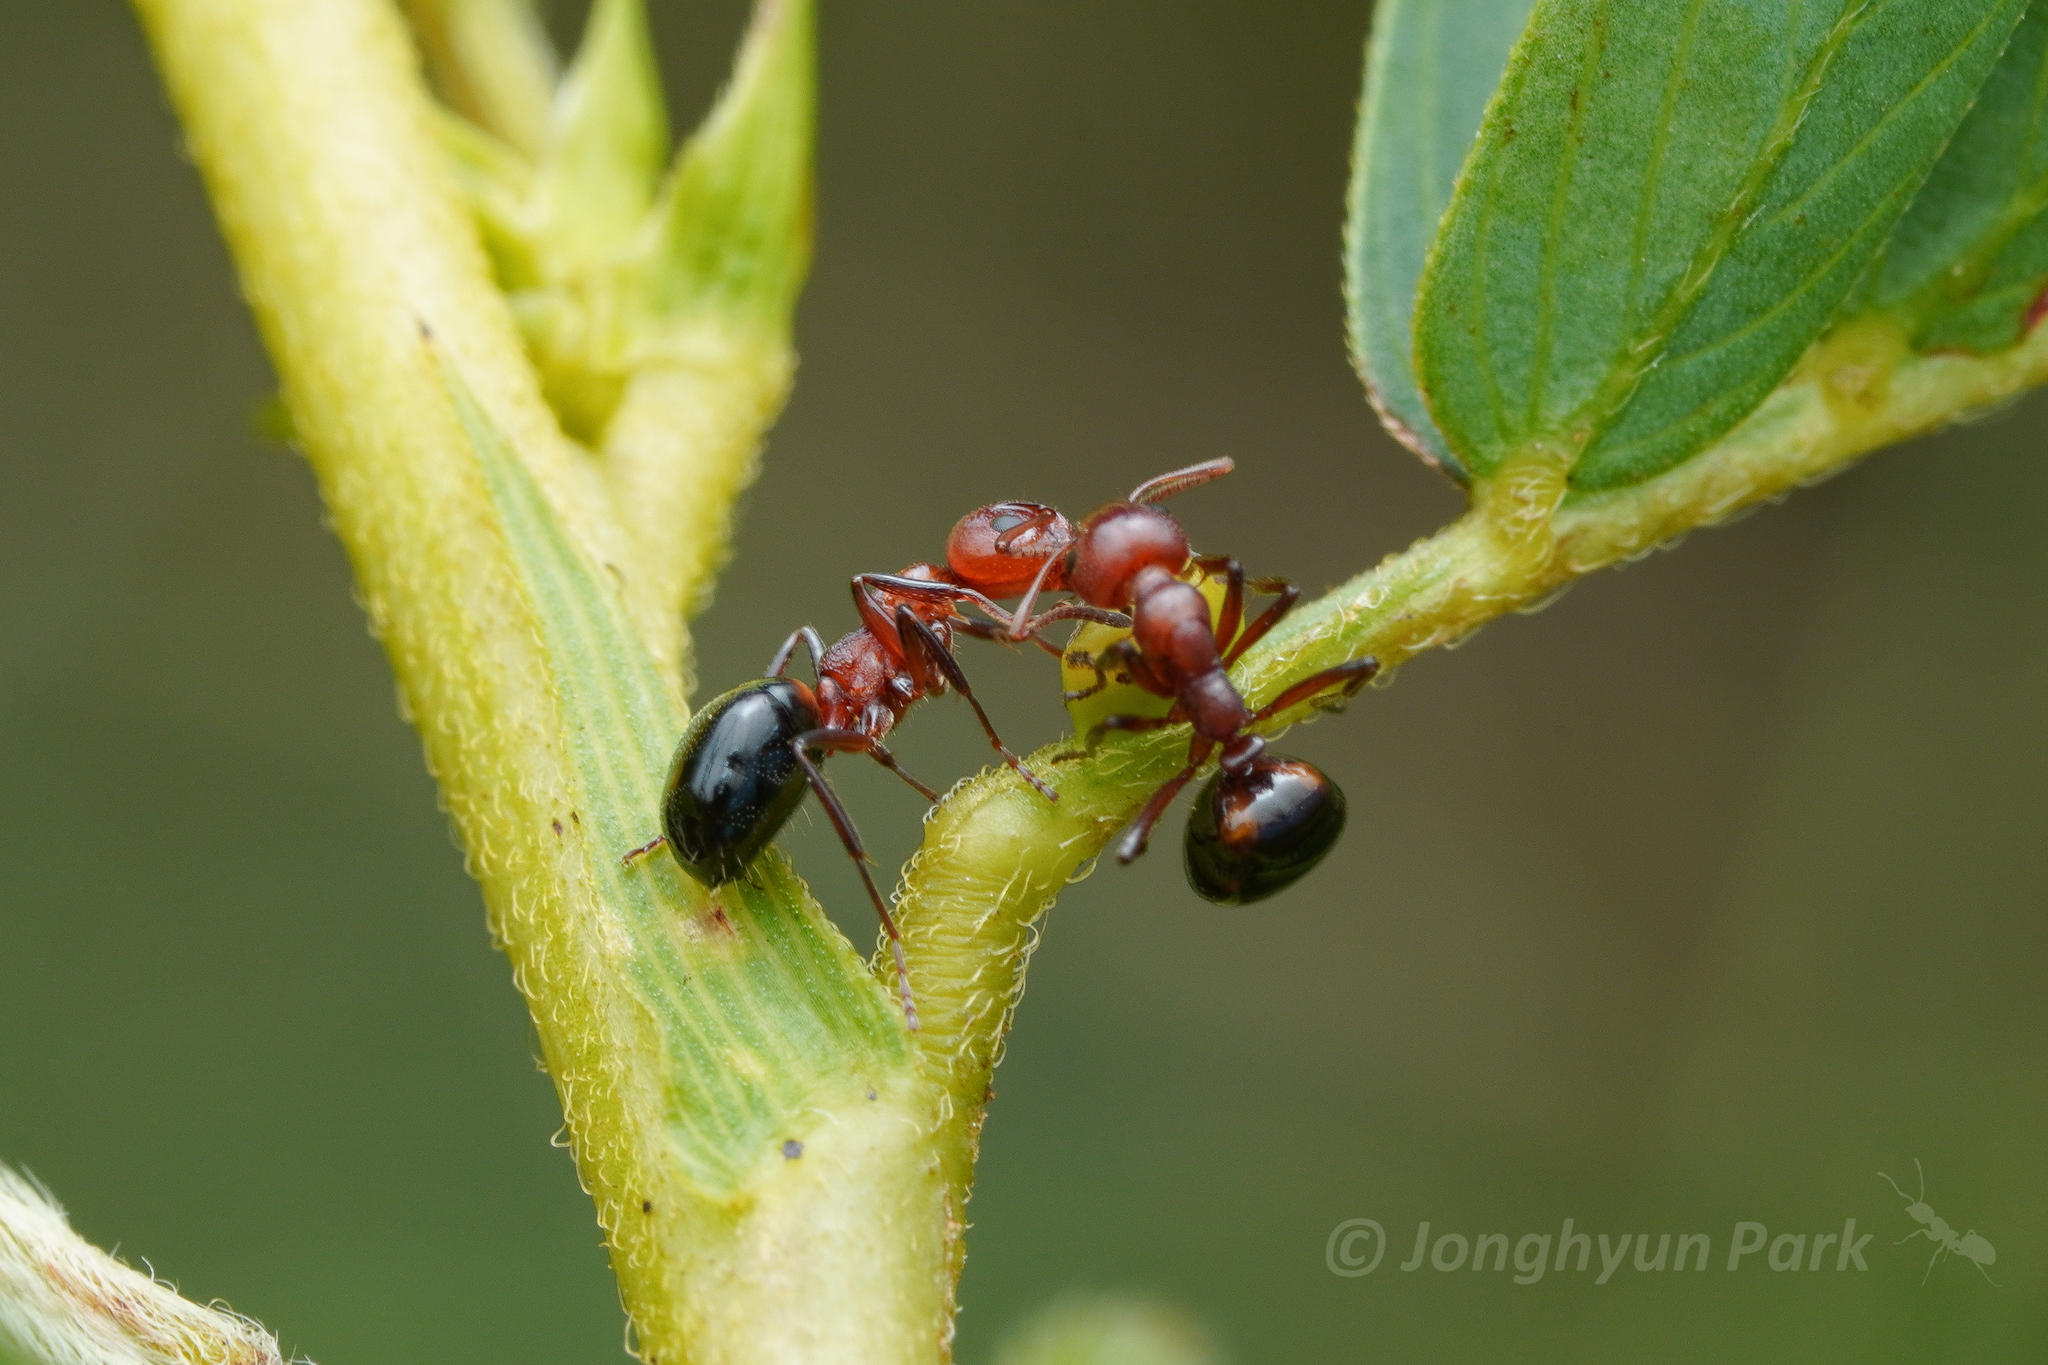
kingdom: Animalia
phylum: Arthropoda
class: Insecta
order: Hymenoptera
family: Formicidae
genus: Dolichoderus
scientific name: Dolichoderus mariae
